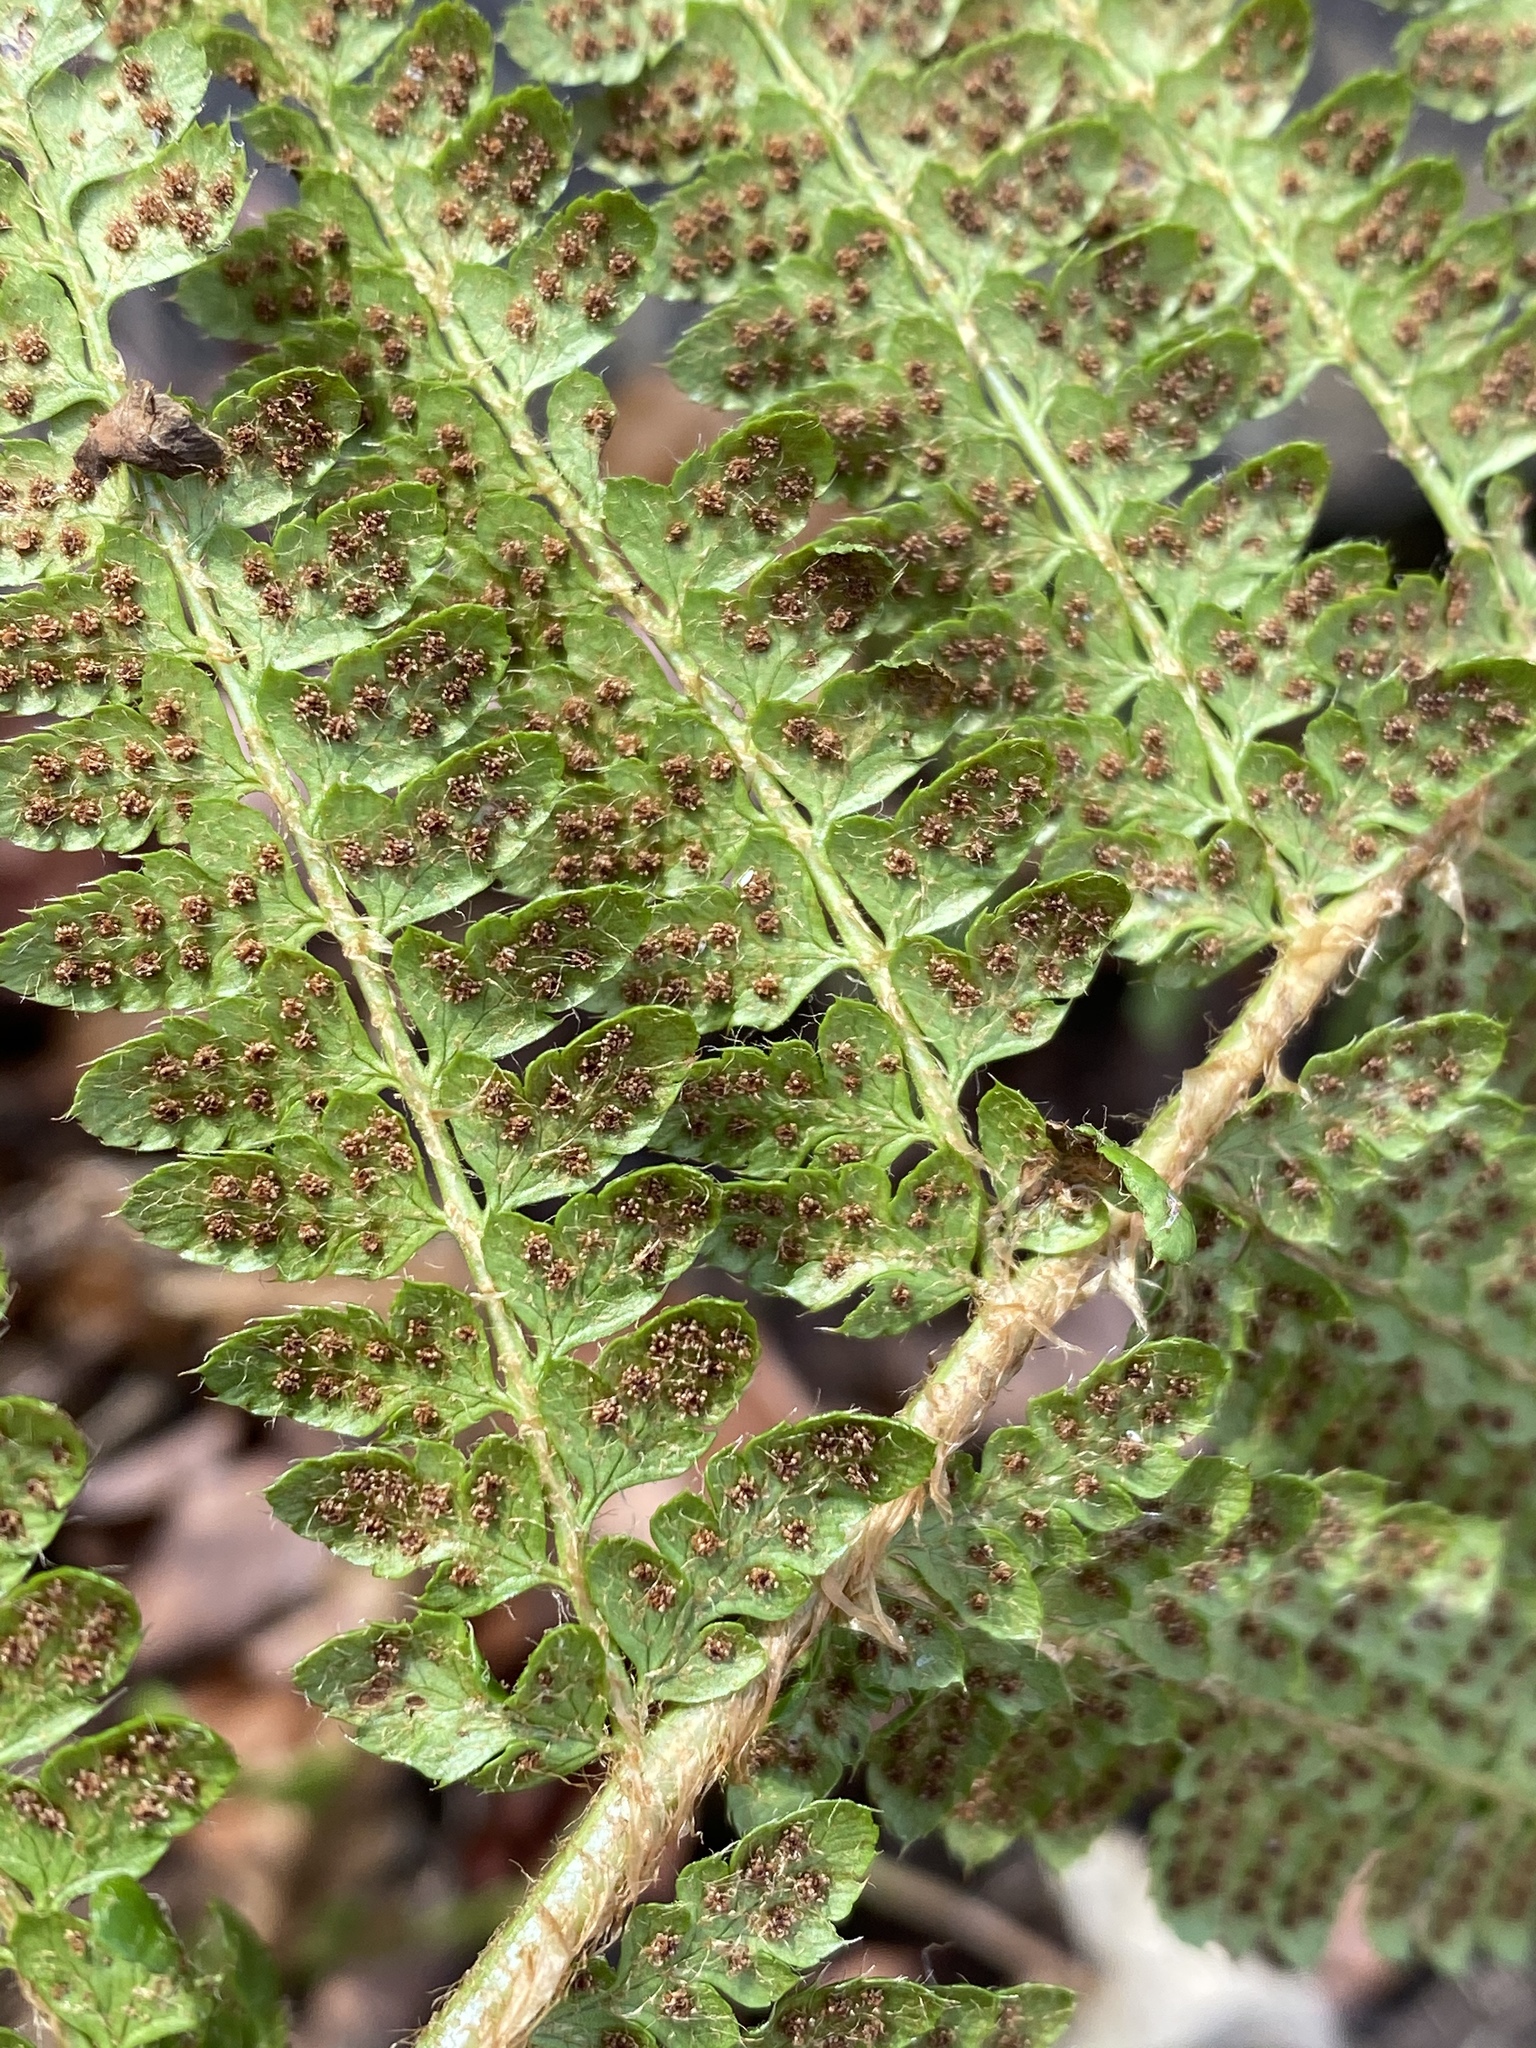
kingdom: Plantae
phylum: Tracheophyta
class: Polypodiopsida
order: Polypodiales
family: Dryopteridaceae
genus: Polystichum
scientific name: Polystichum braunii
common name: Braun's holly fern
